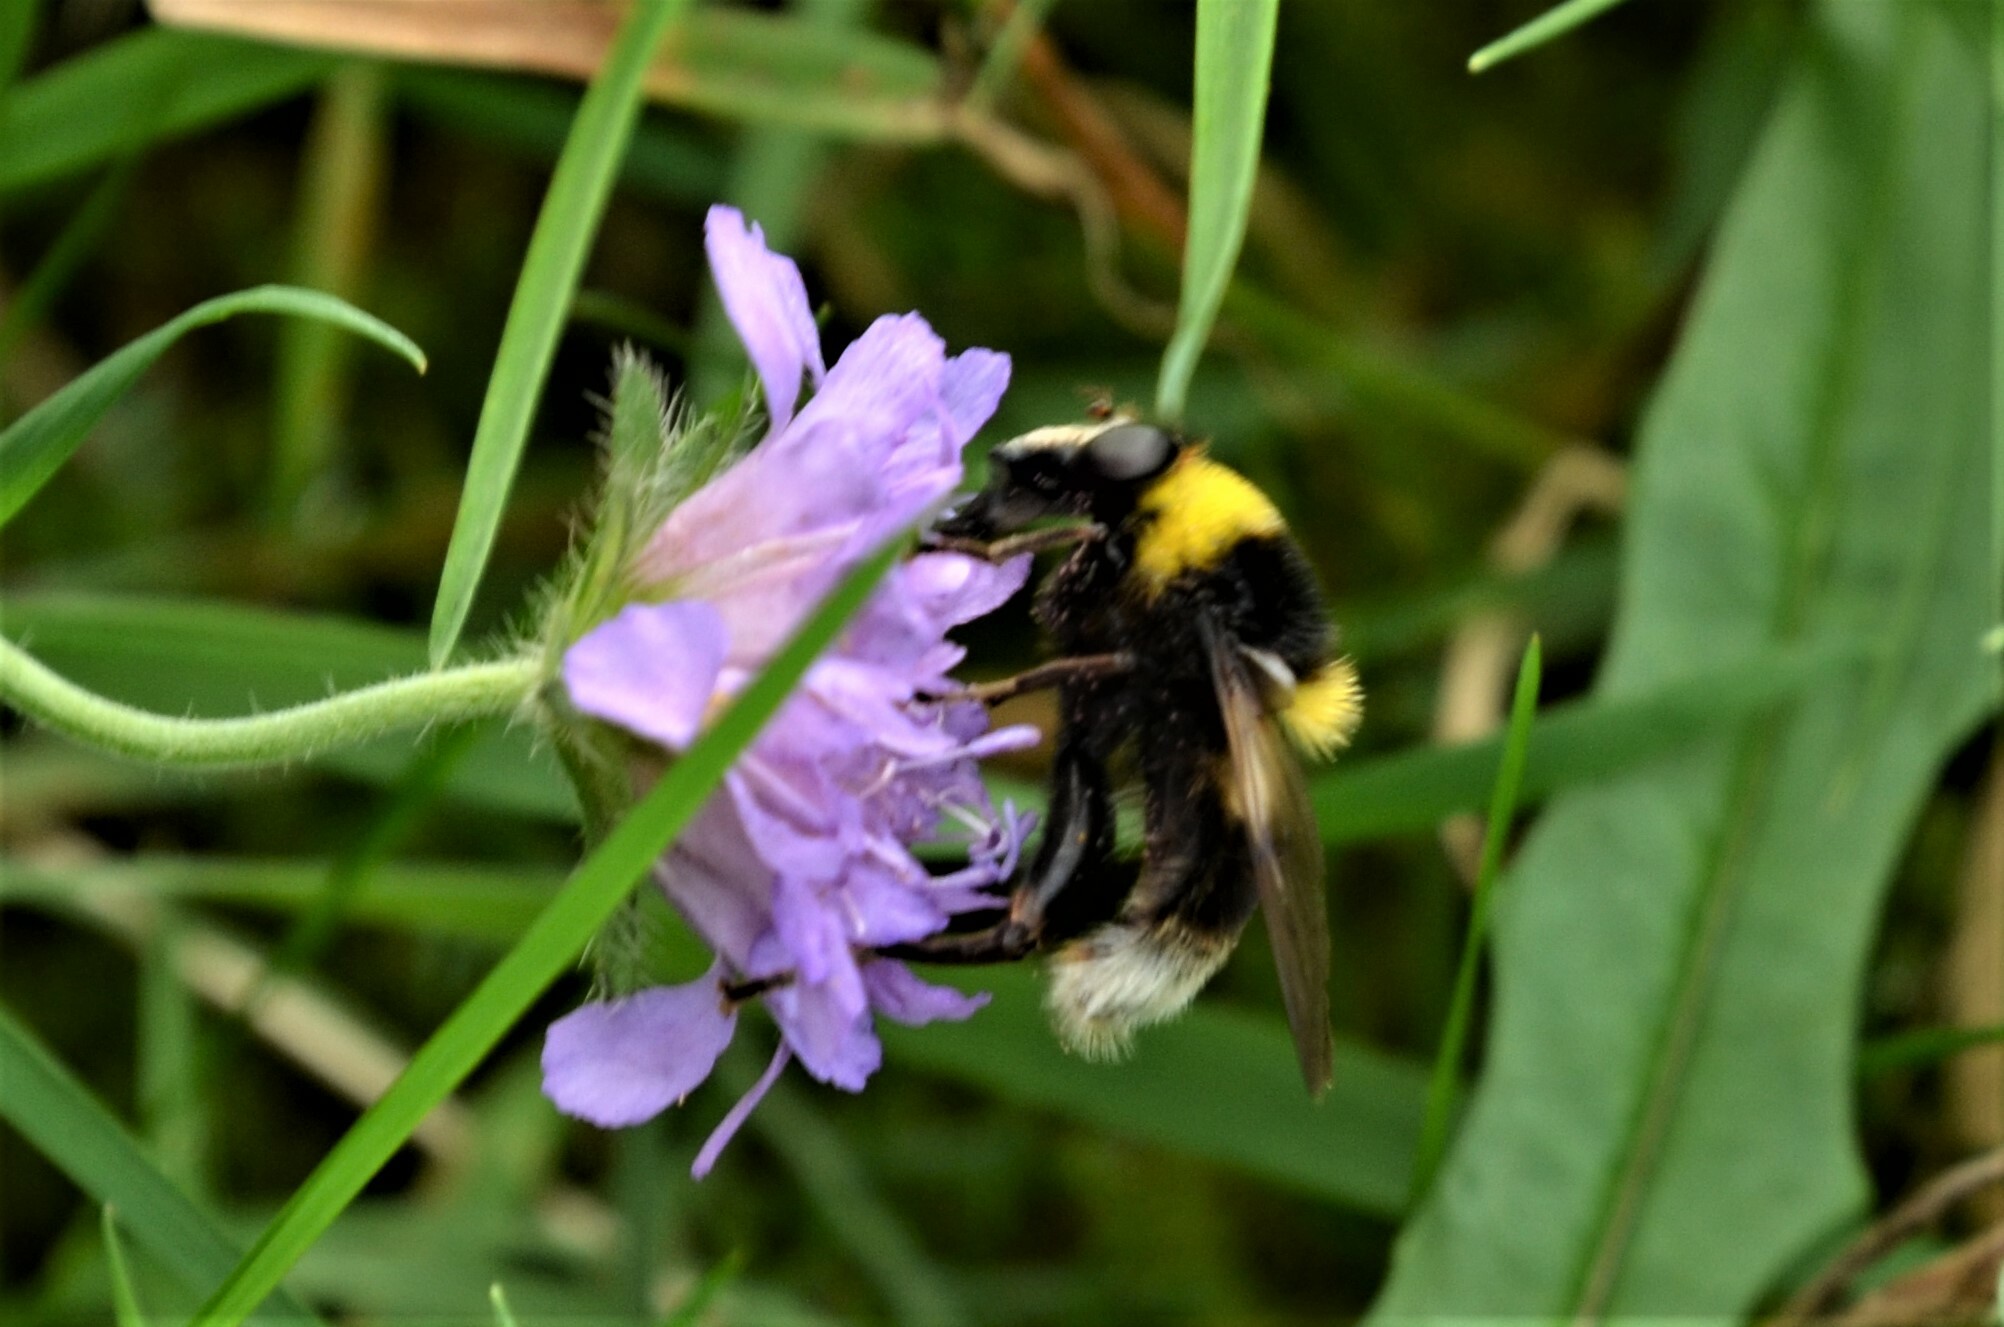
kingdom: Animalia
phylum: Arthropoda
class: Insecta
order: Diptera
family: Syrphidae
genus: Sericomyia
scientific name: Sericomyia bombiformis
